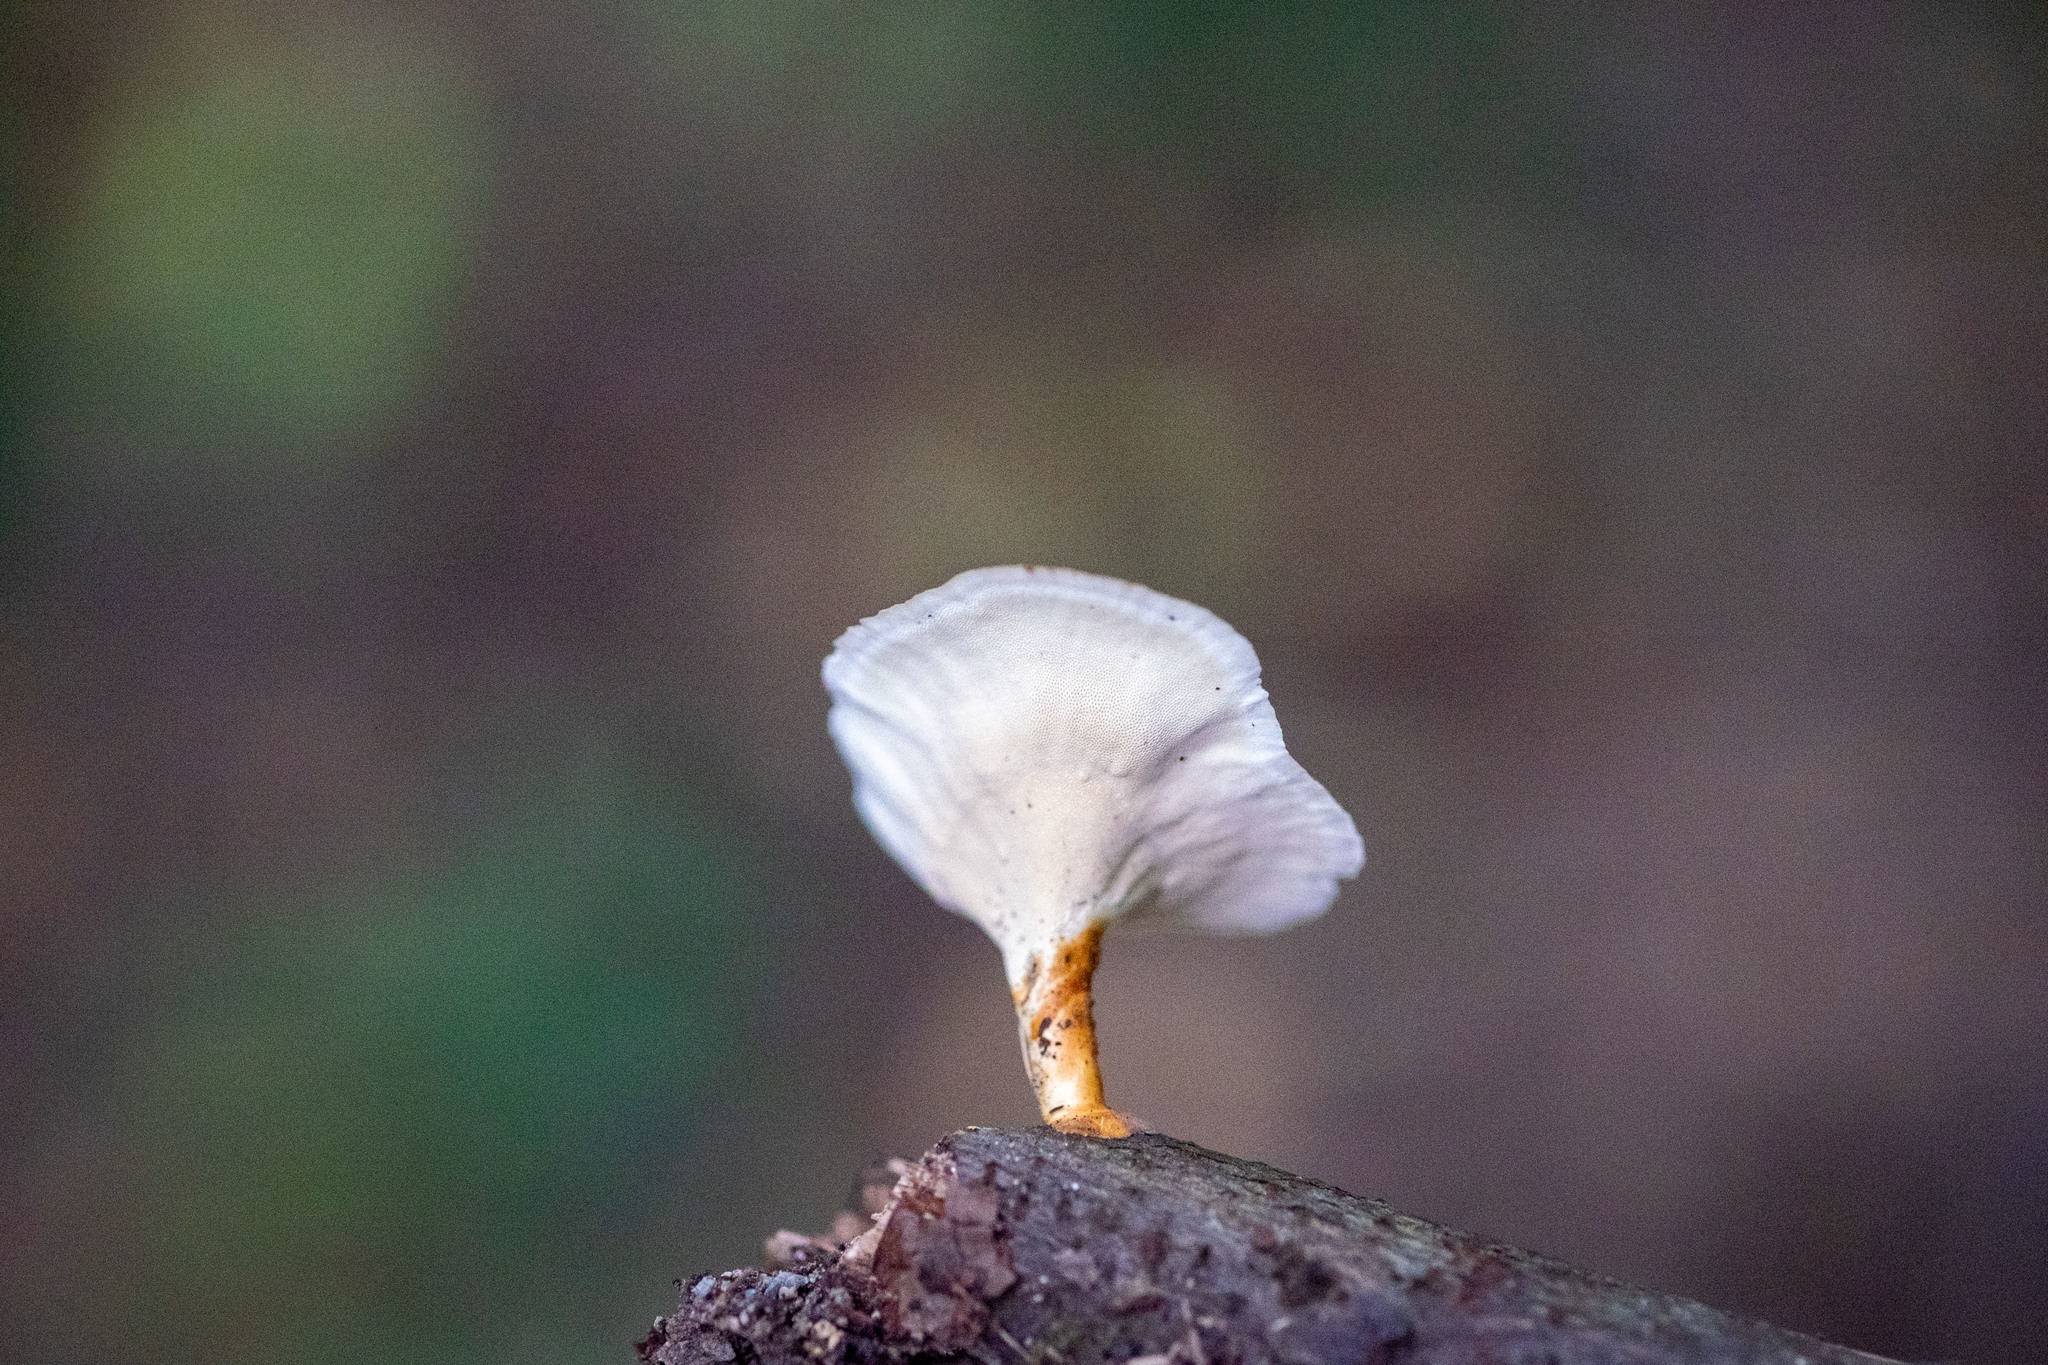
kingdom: Fungi
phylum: Basidiomycota
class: Agaricomycetes
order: Polyporales
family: Polyporaceae
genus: Microporus
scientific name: Microporus xanthopus
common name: Yellow-stemmed micropore
